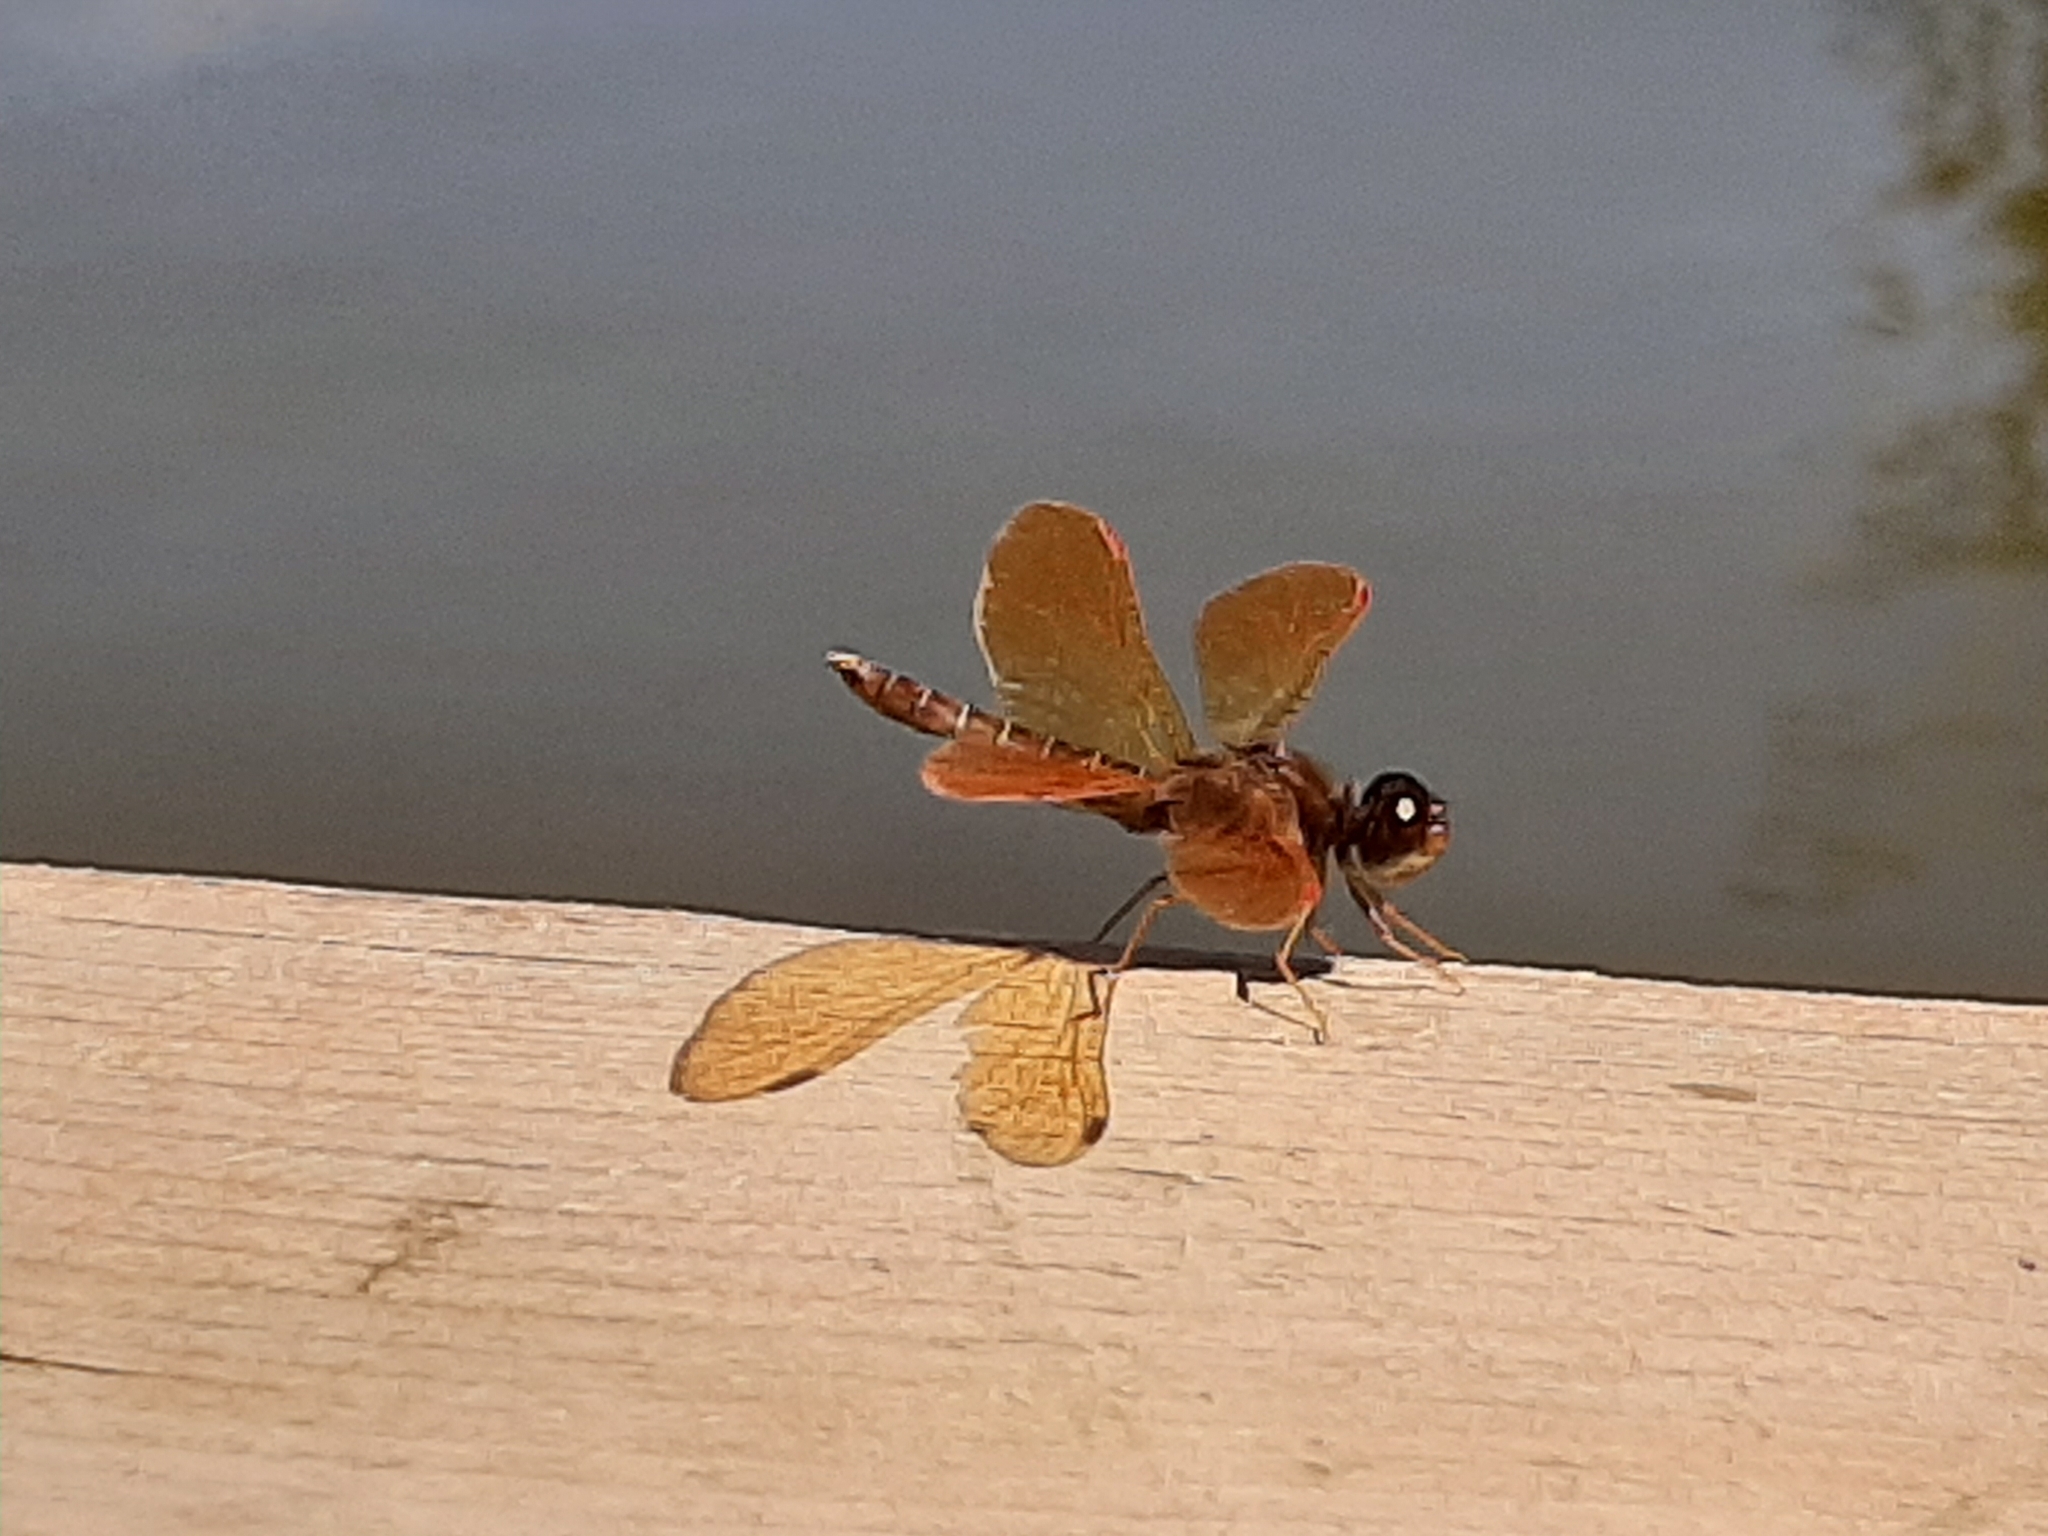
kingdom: Animalia
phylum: Arthropoda
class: Insecta
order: Odonata
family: Libellulidae
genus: Perithemis
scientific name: Perithemis tenera
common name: Eastern amberwing
